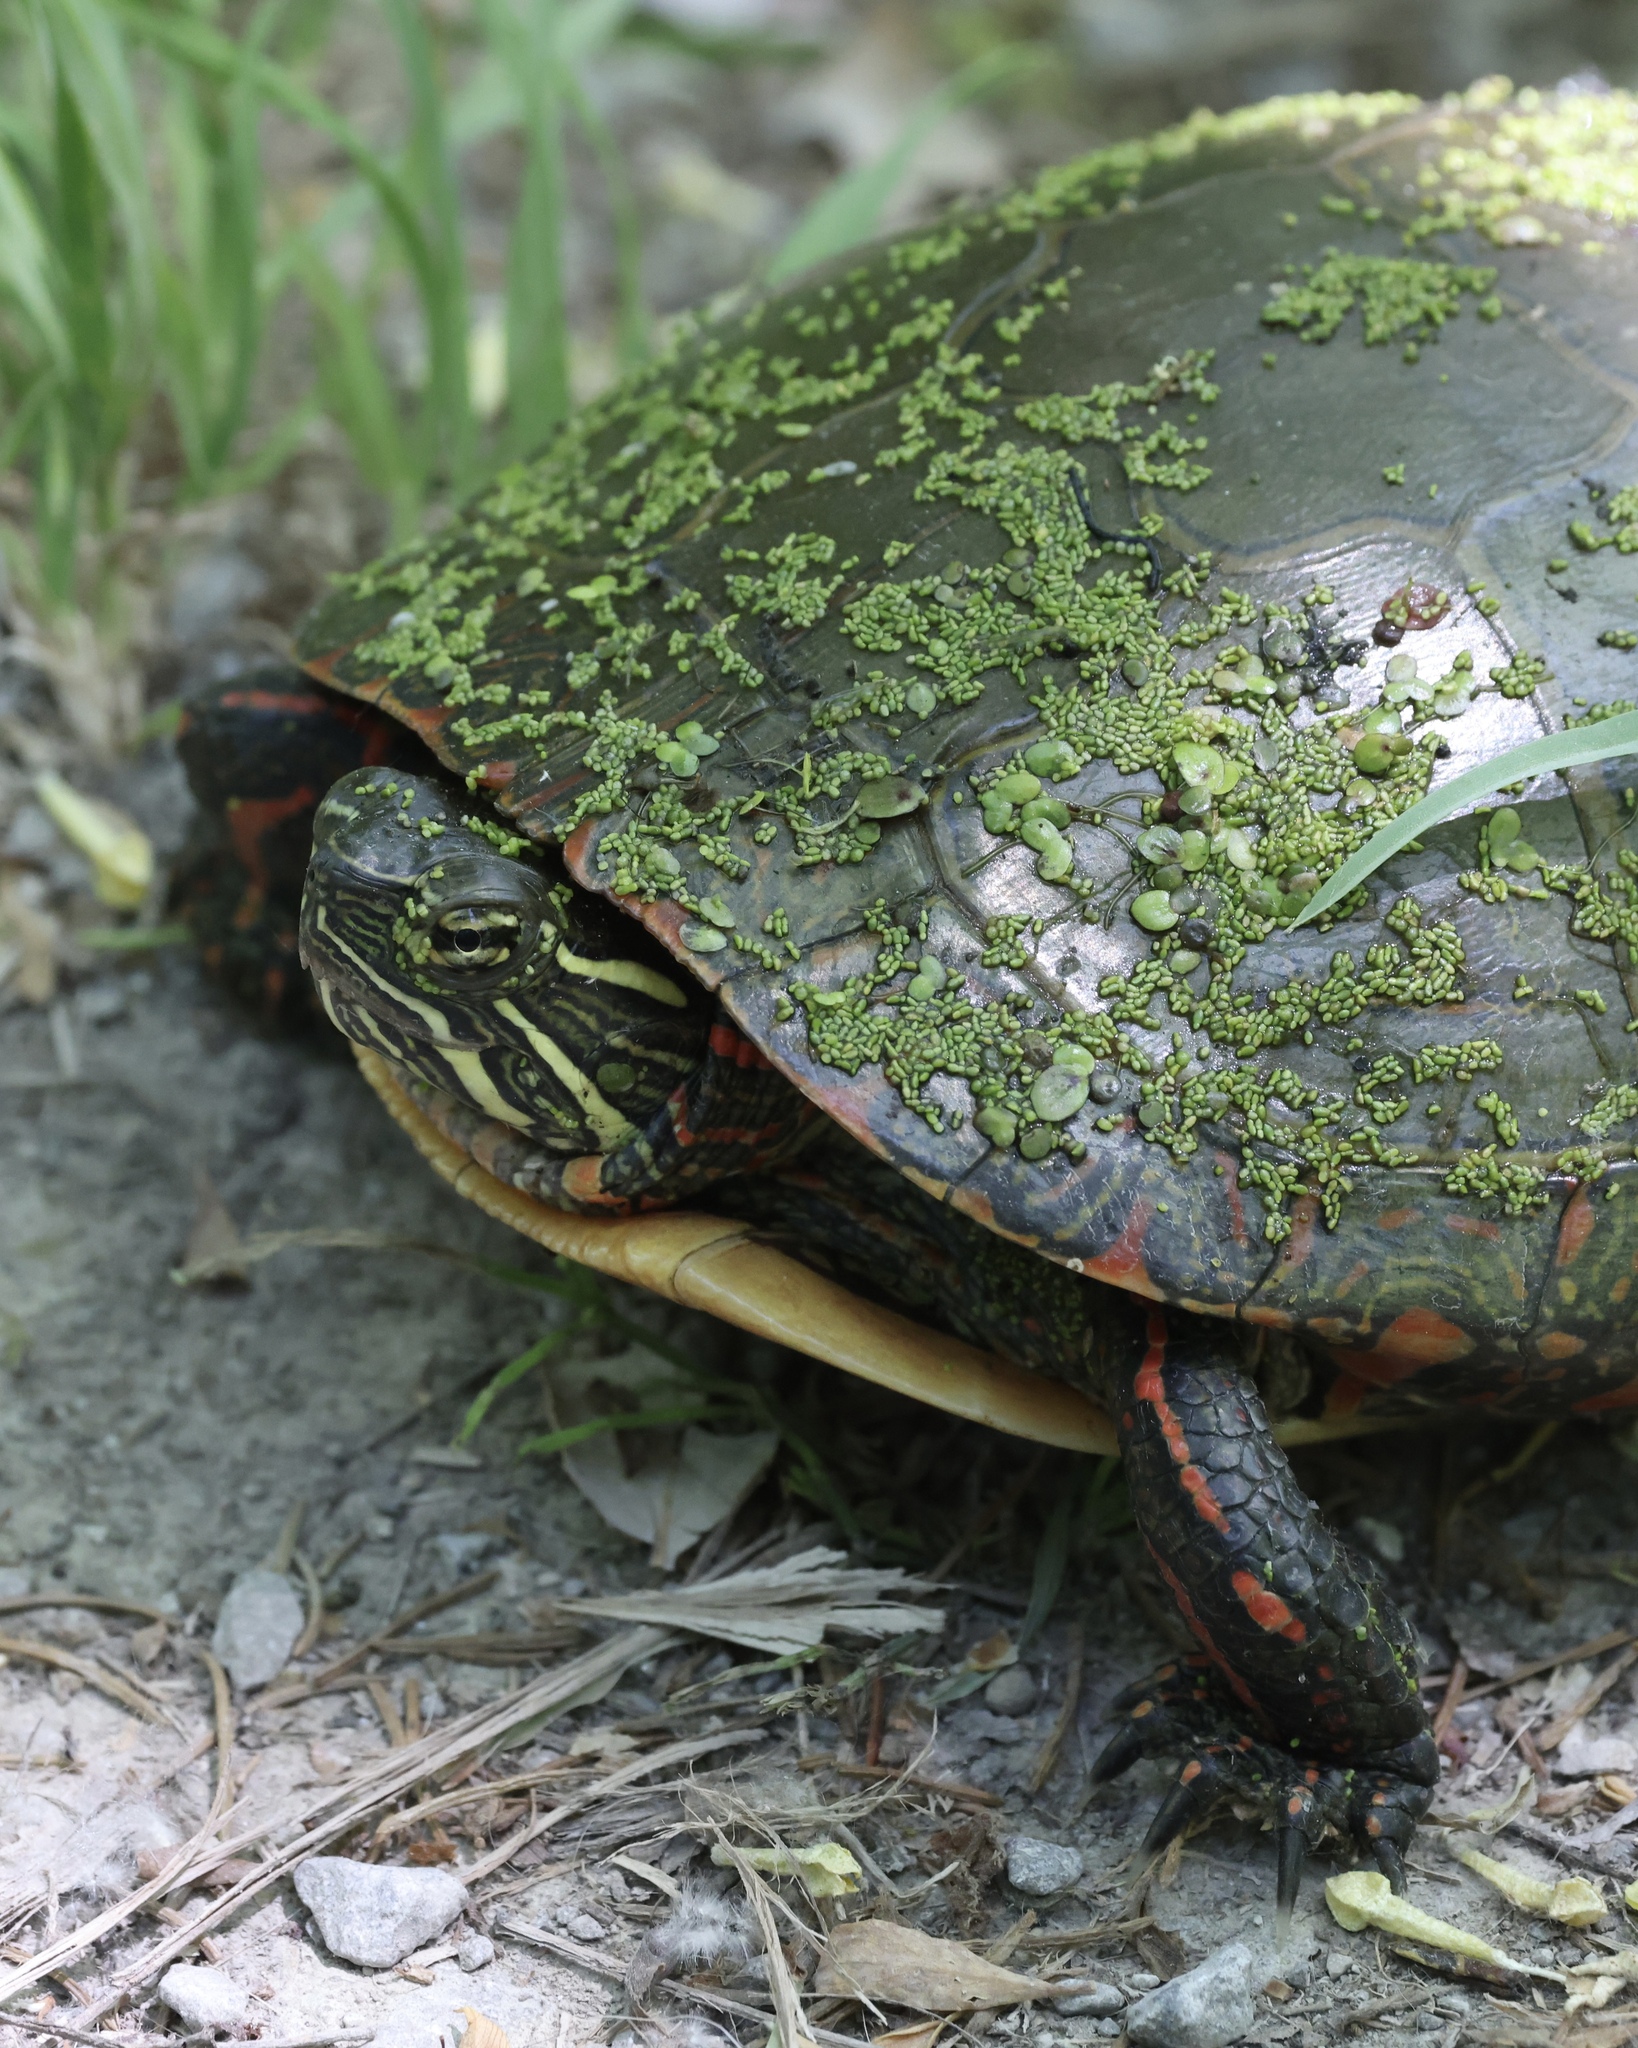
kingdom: Animalia
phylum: Chordata
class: Testudines
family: Emydidae
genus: Chrysemys
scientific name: Chrysemys picta
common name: Painted turtle
